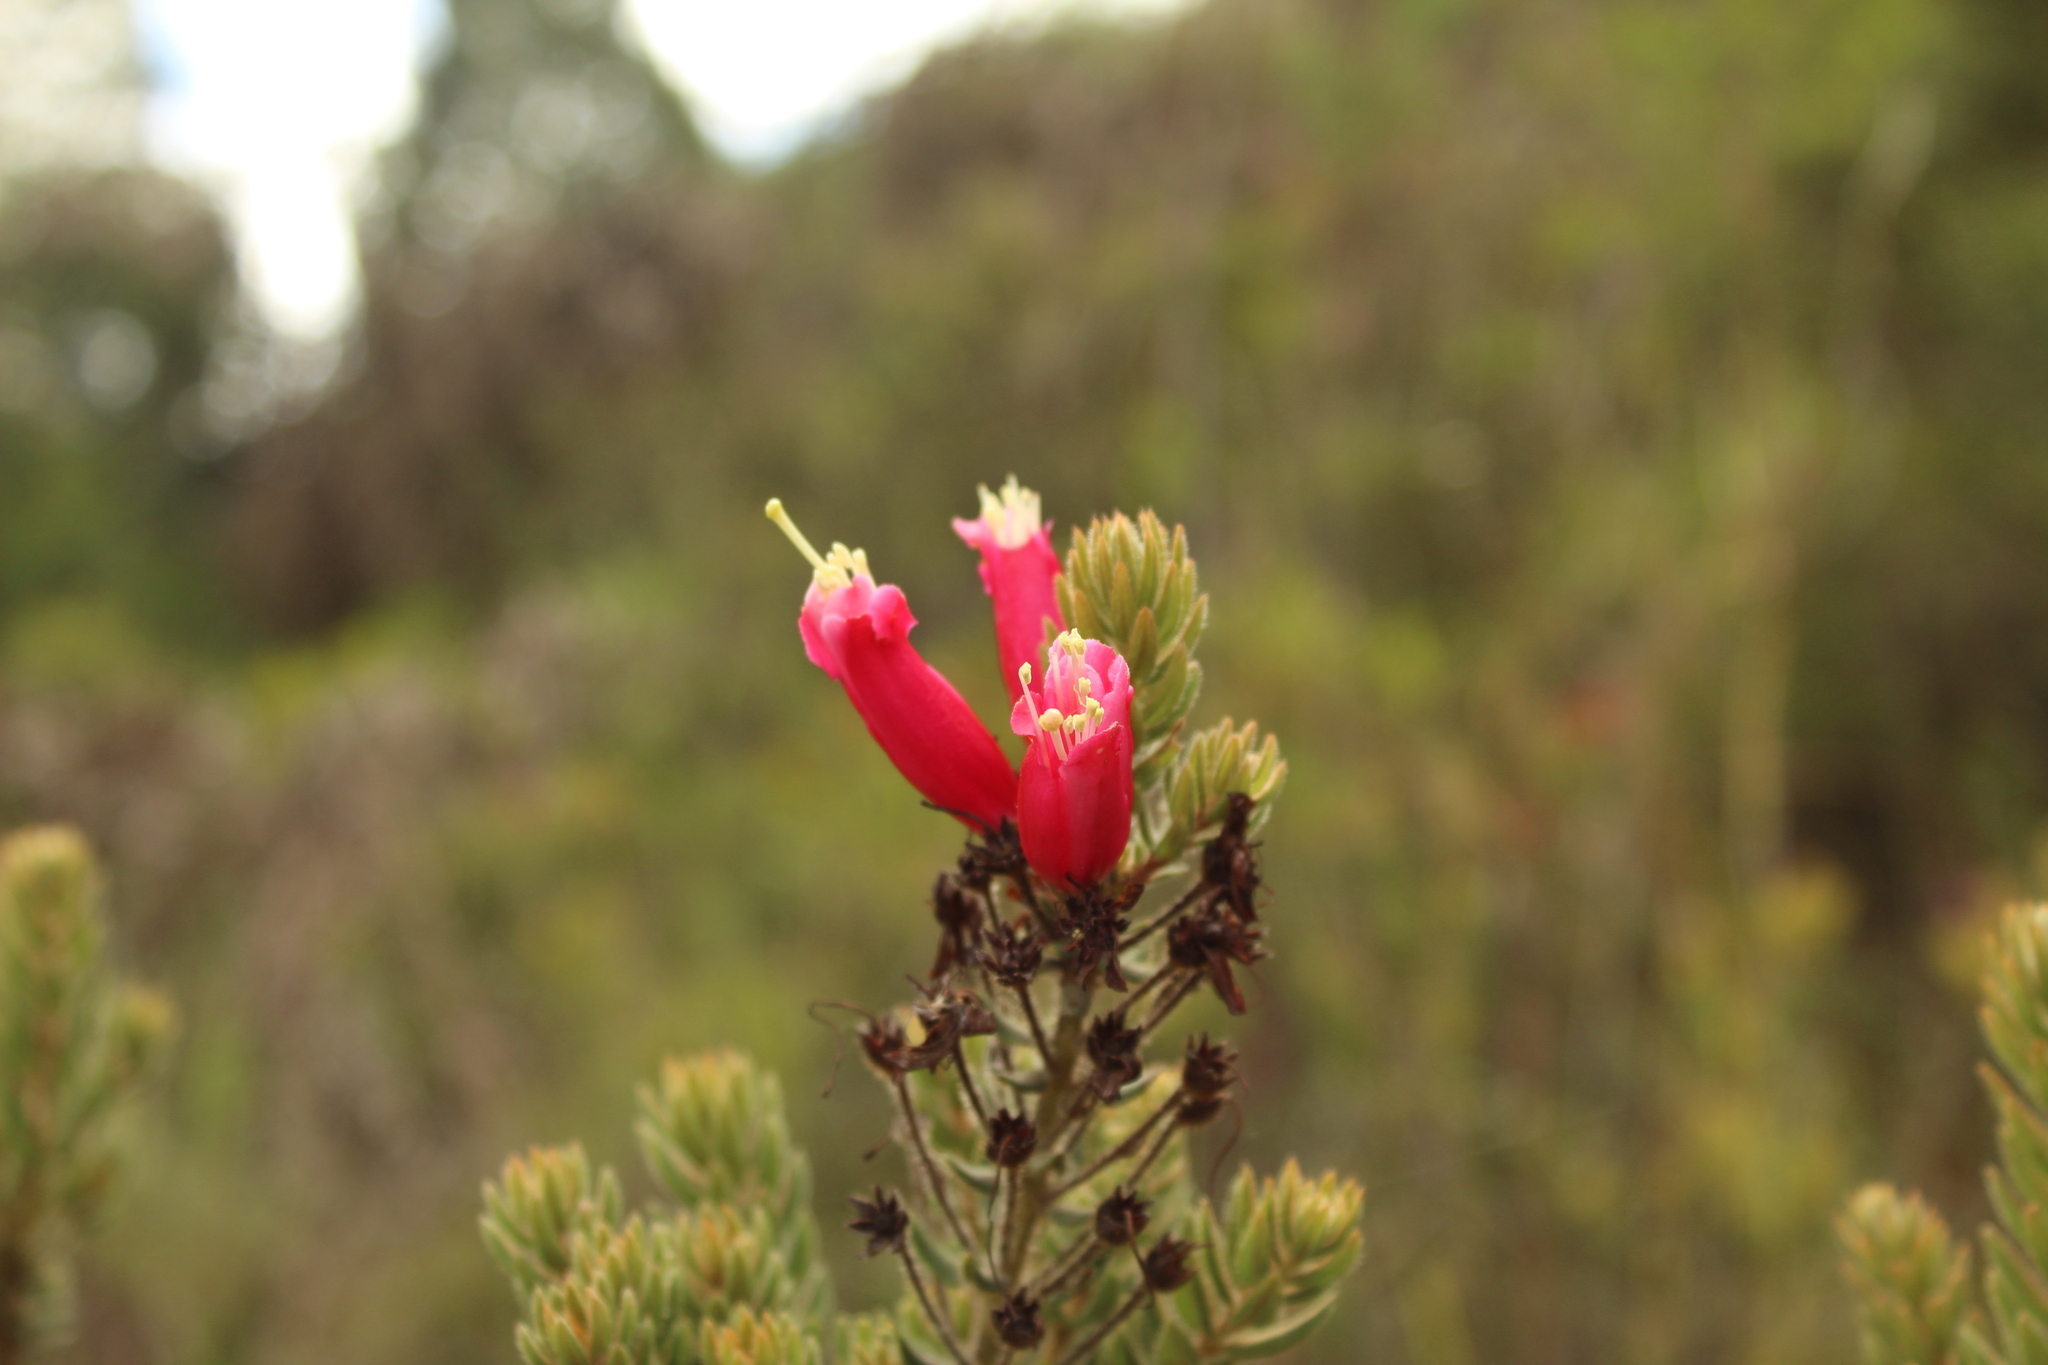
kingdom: Plantae
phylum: Tracheophyta
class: Magnoliopsida
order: Ericales
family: Ericaceae
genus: Bejaria
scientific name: Bejaria resinosa
